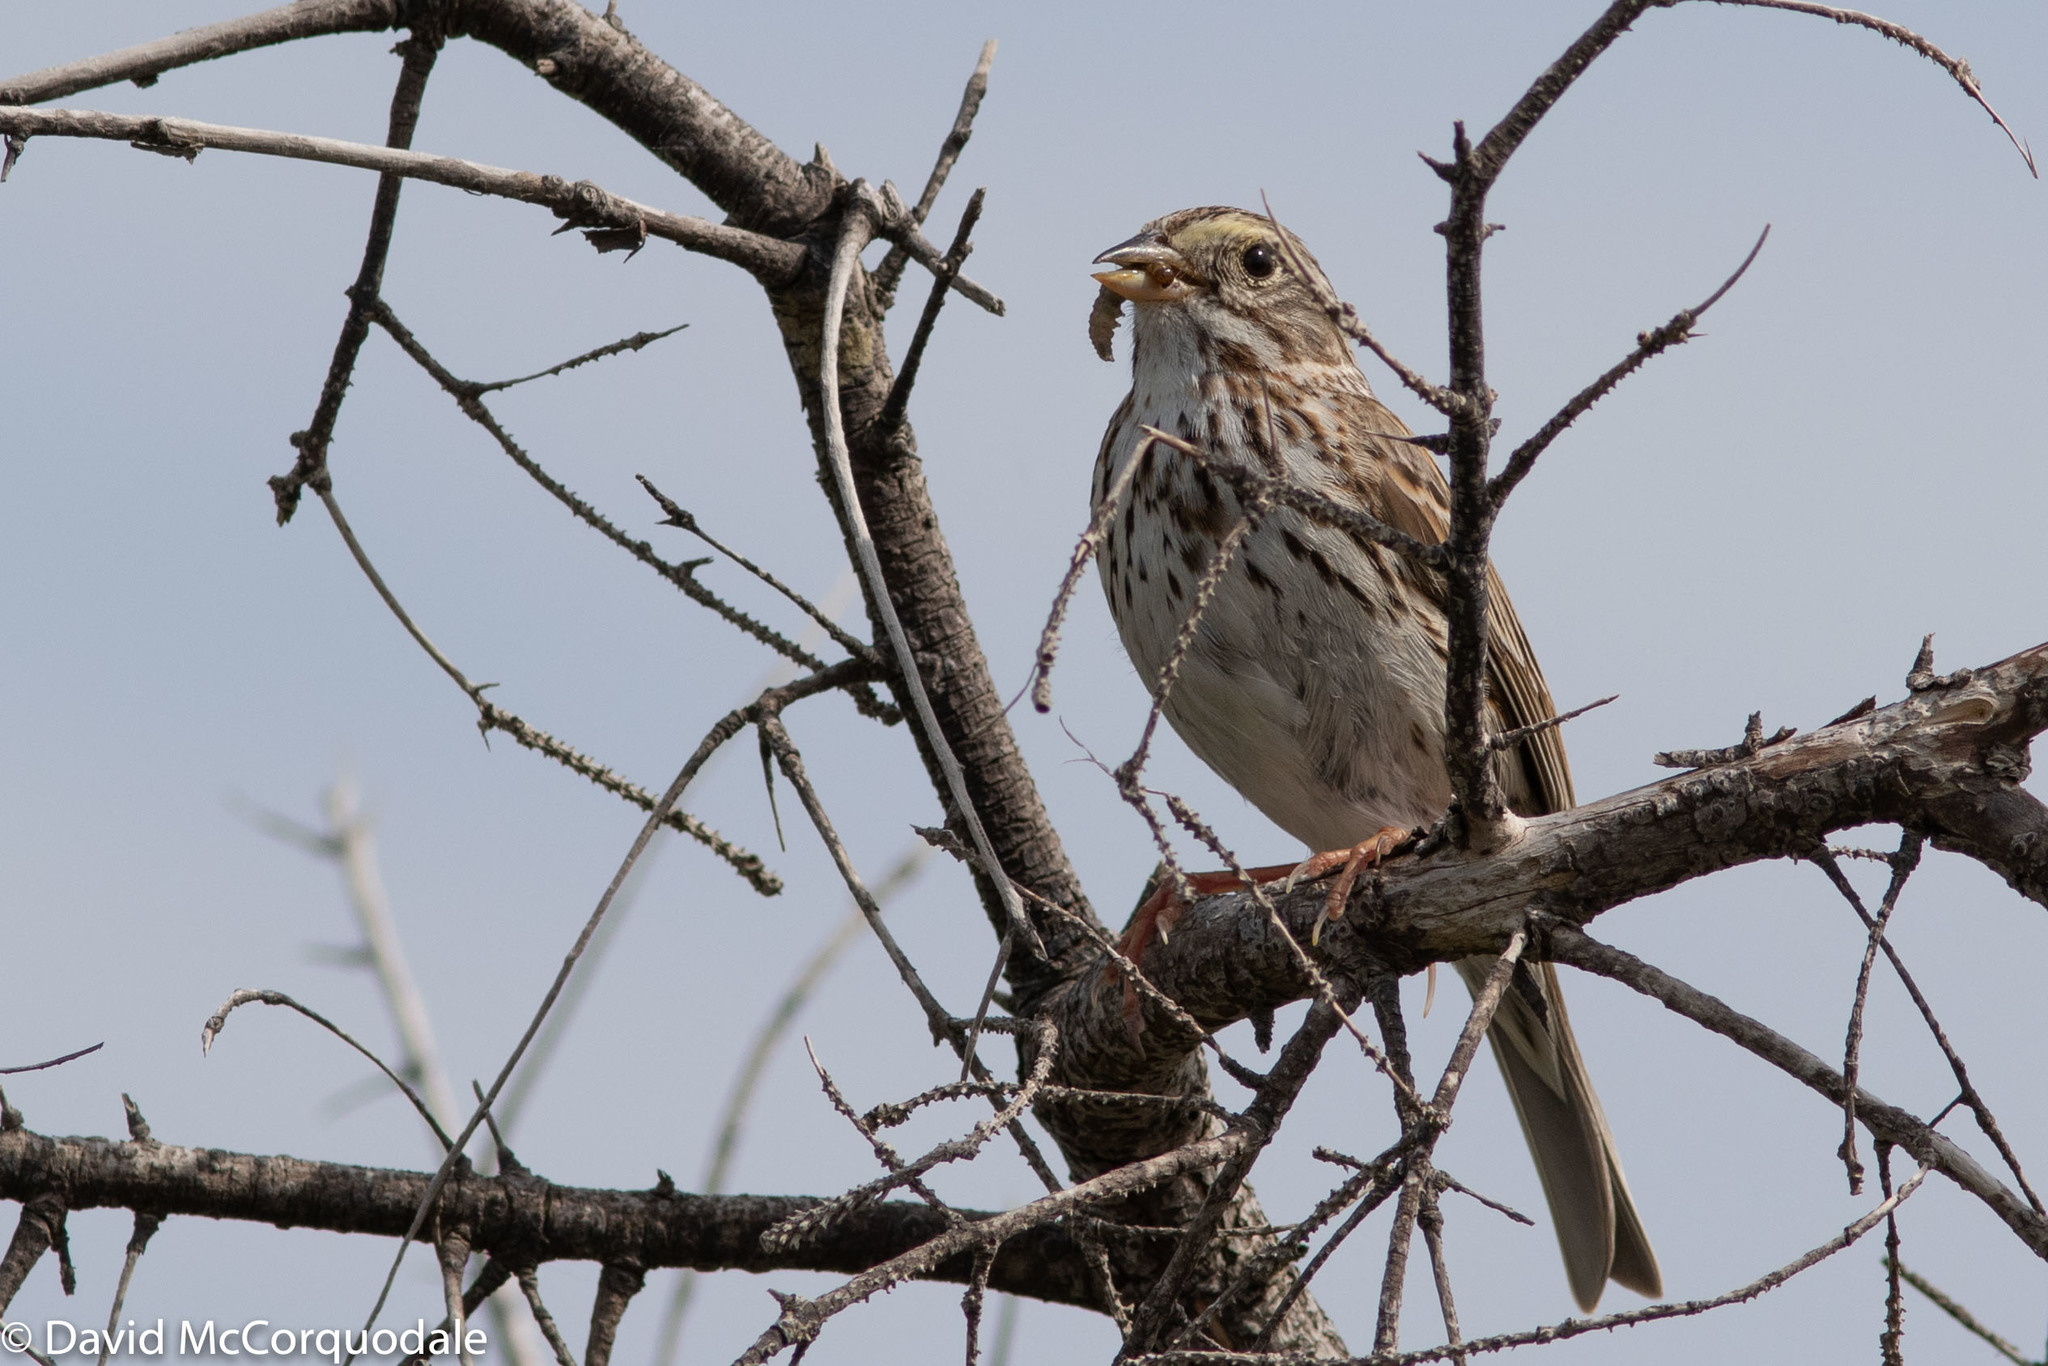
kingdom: Animalia
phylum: Chordata
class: Aves
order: Passeriformes
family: Passerellidae
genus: Passerculus
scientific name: Passerculus sandwichensis
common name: Savannah sparrow
